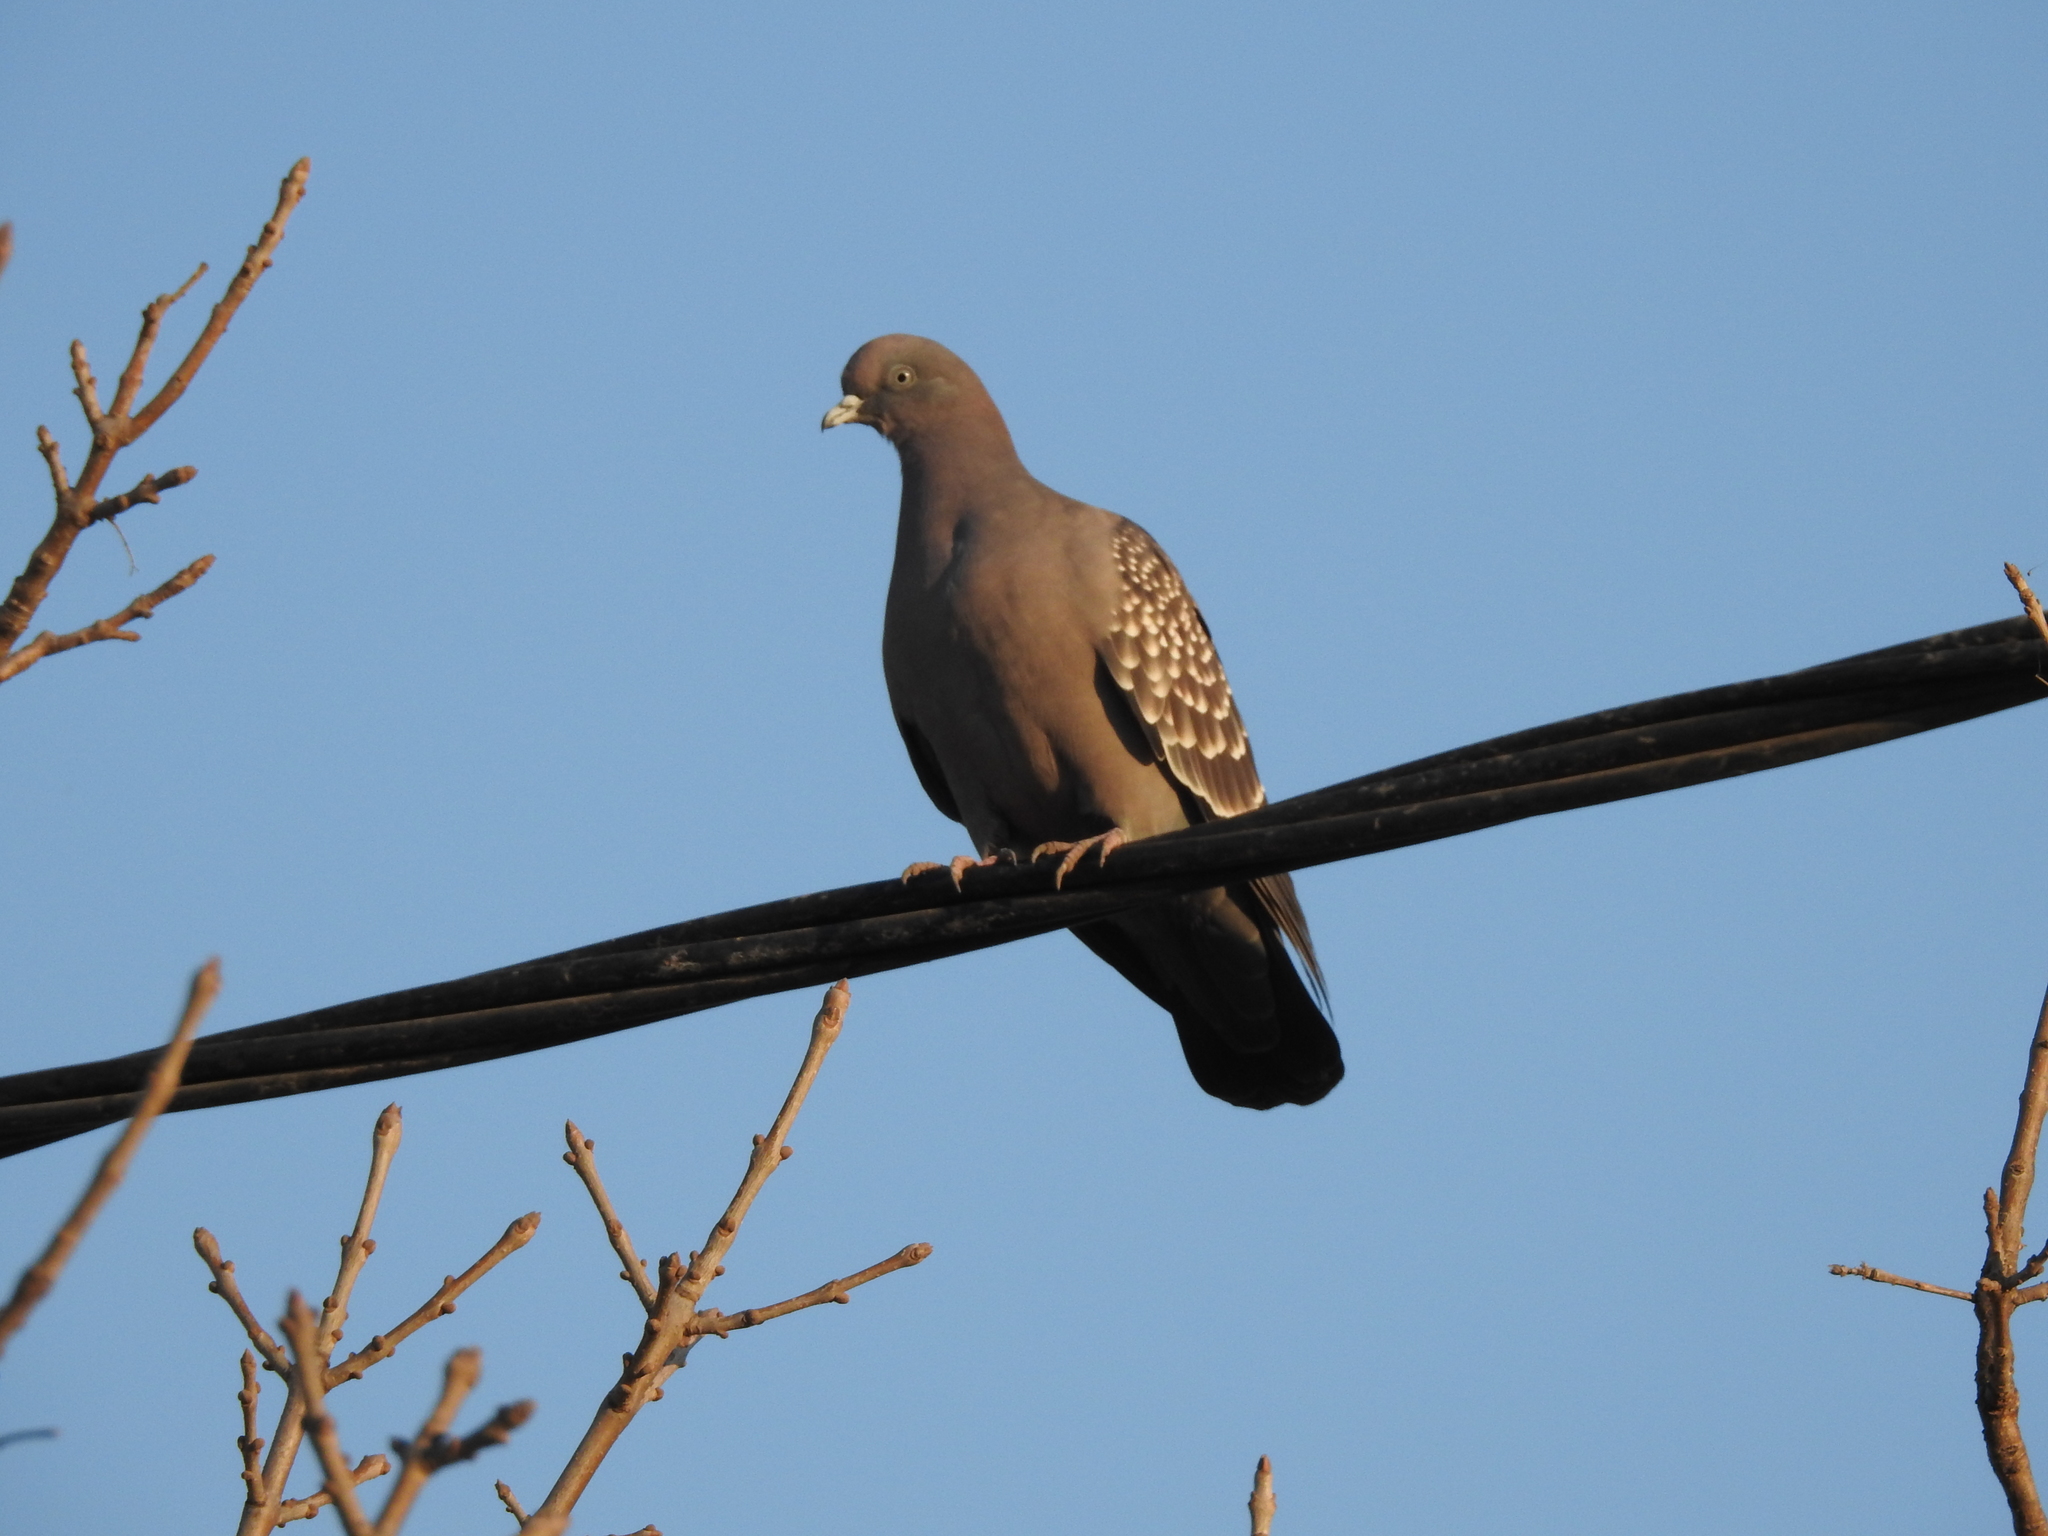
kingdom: Animalia
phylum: Chordata
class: Aves
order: Columbiformes
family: Columbidae
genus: Patagioenas
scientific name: Patagioenas maculosa
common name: Spot-winged pigeon
